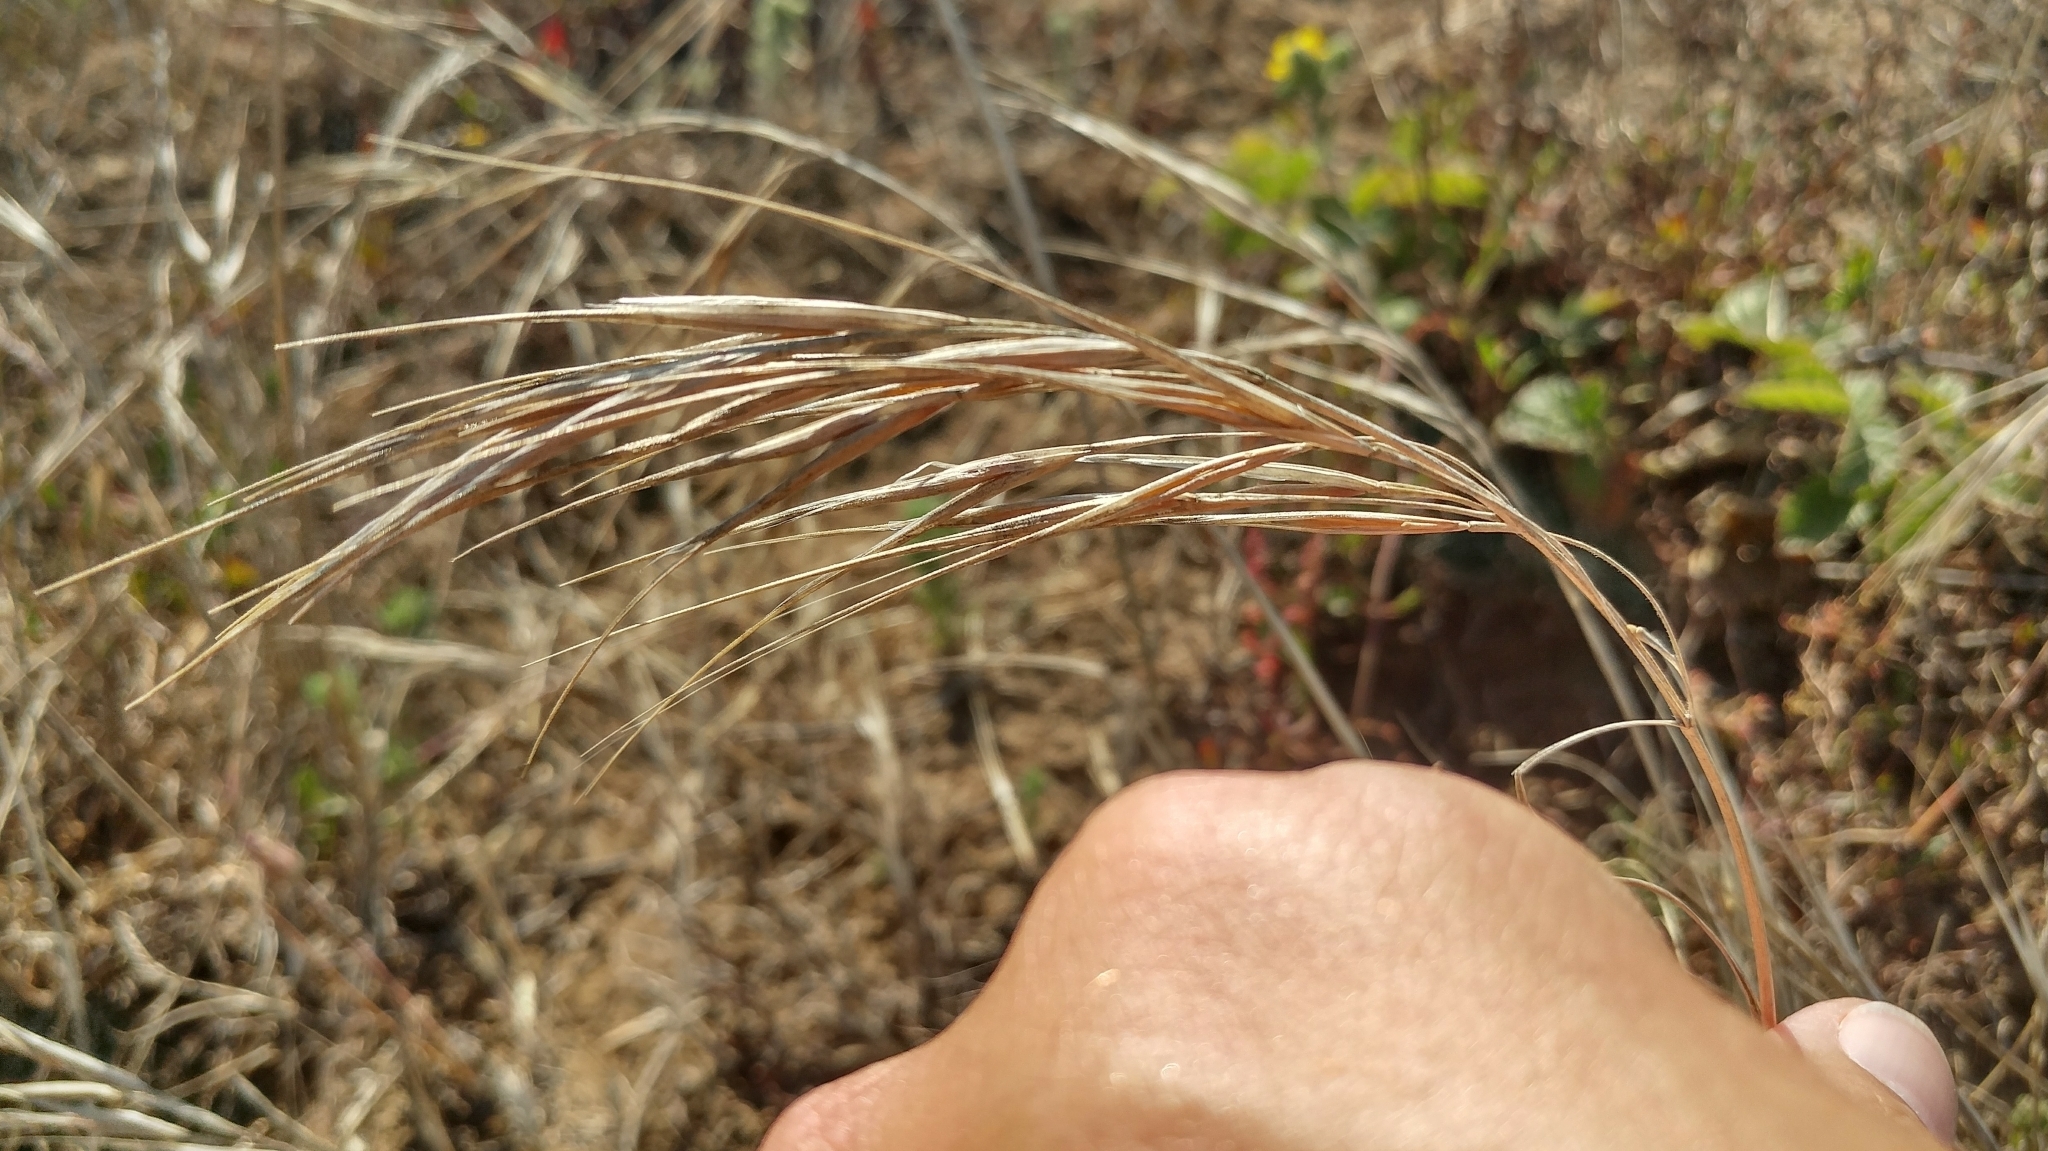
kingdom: Plantae
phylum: Tracheophyta
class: Liliopsida
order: Poales
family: Poaceae
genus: Bromus
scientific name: Bromus diandrus
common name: Ripgut brome
